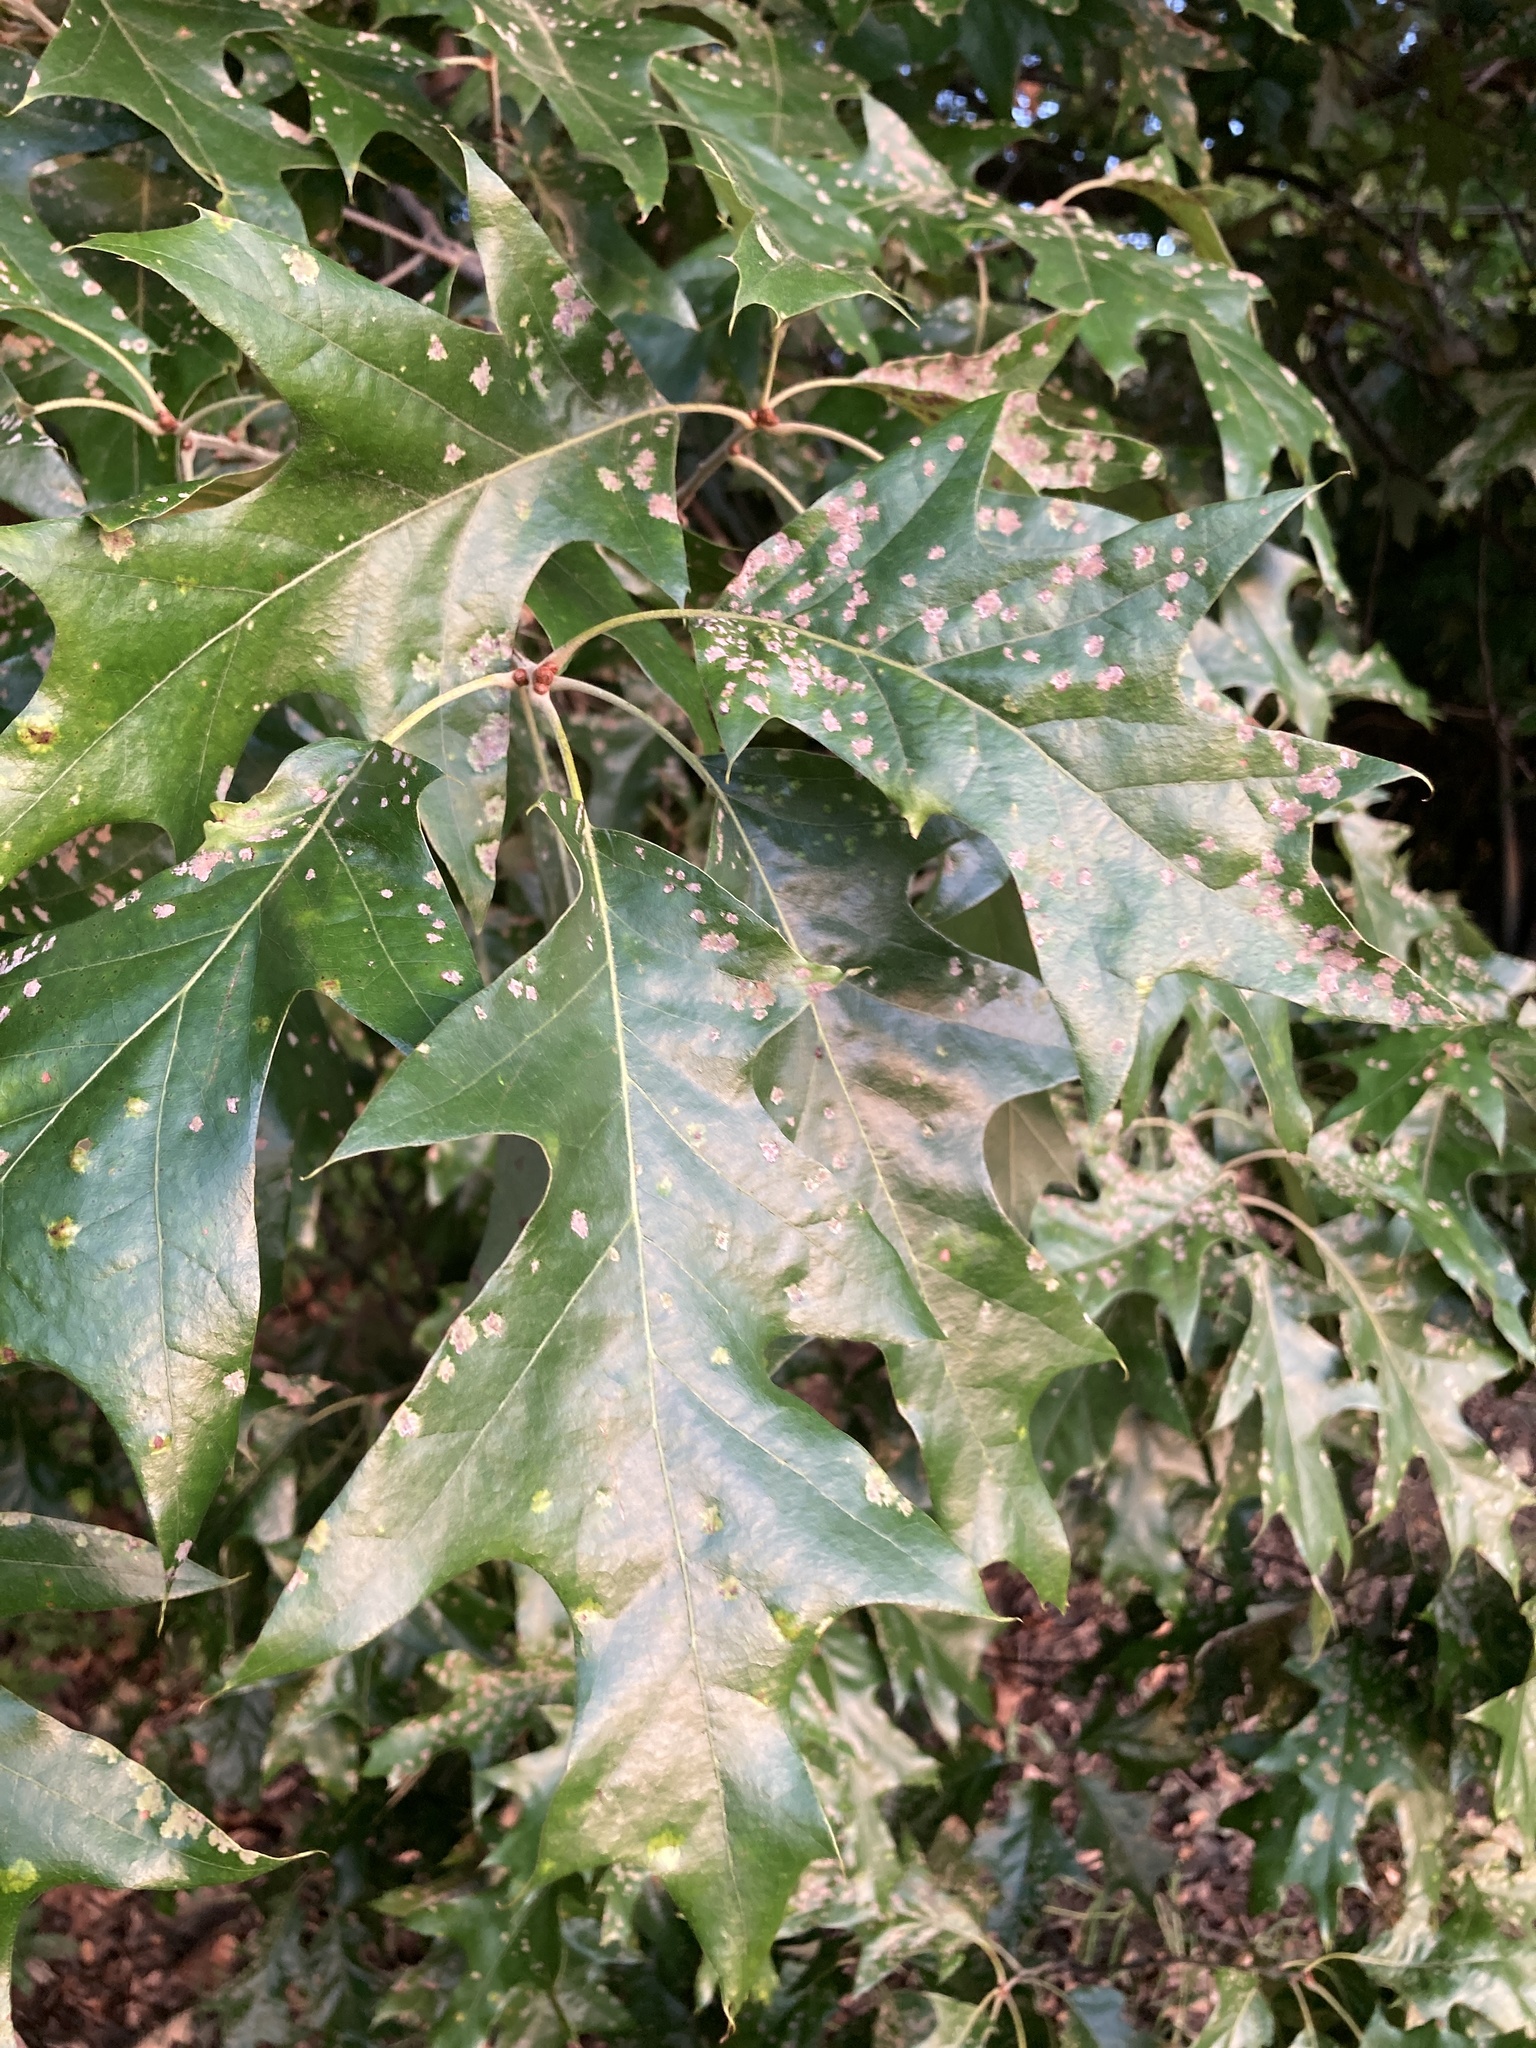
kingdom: Plantae
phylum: Tracheophyta
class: Magnoliopsida
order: Fagales
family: Fagaceae
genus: Quercus
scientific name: Quercus pagoda
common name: Cherrybark oak
